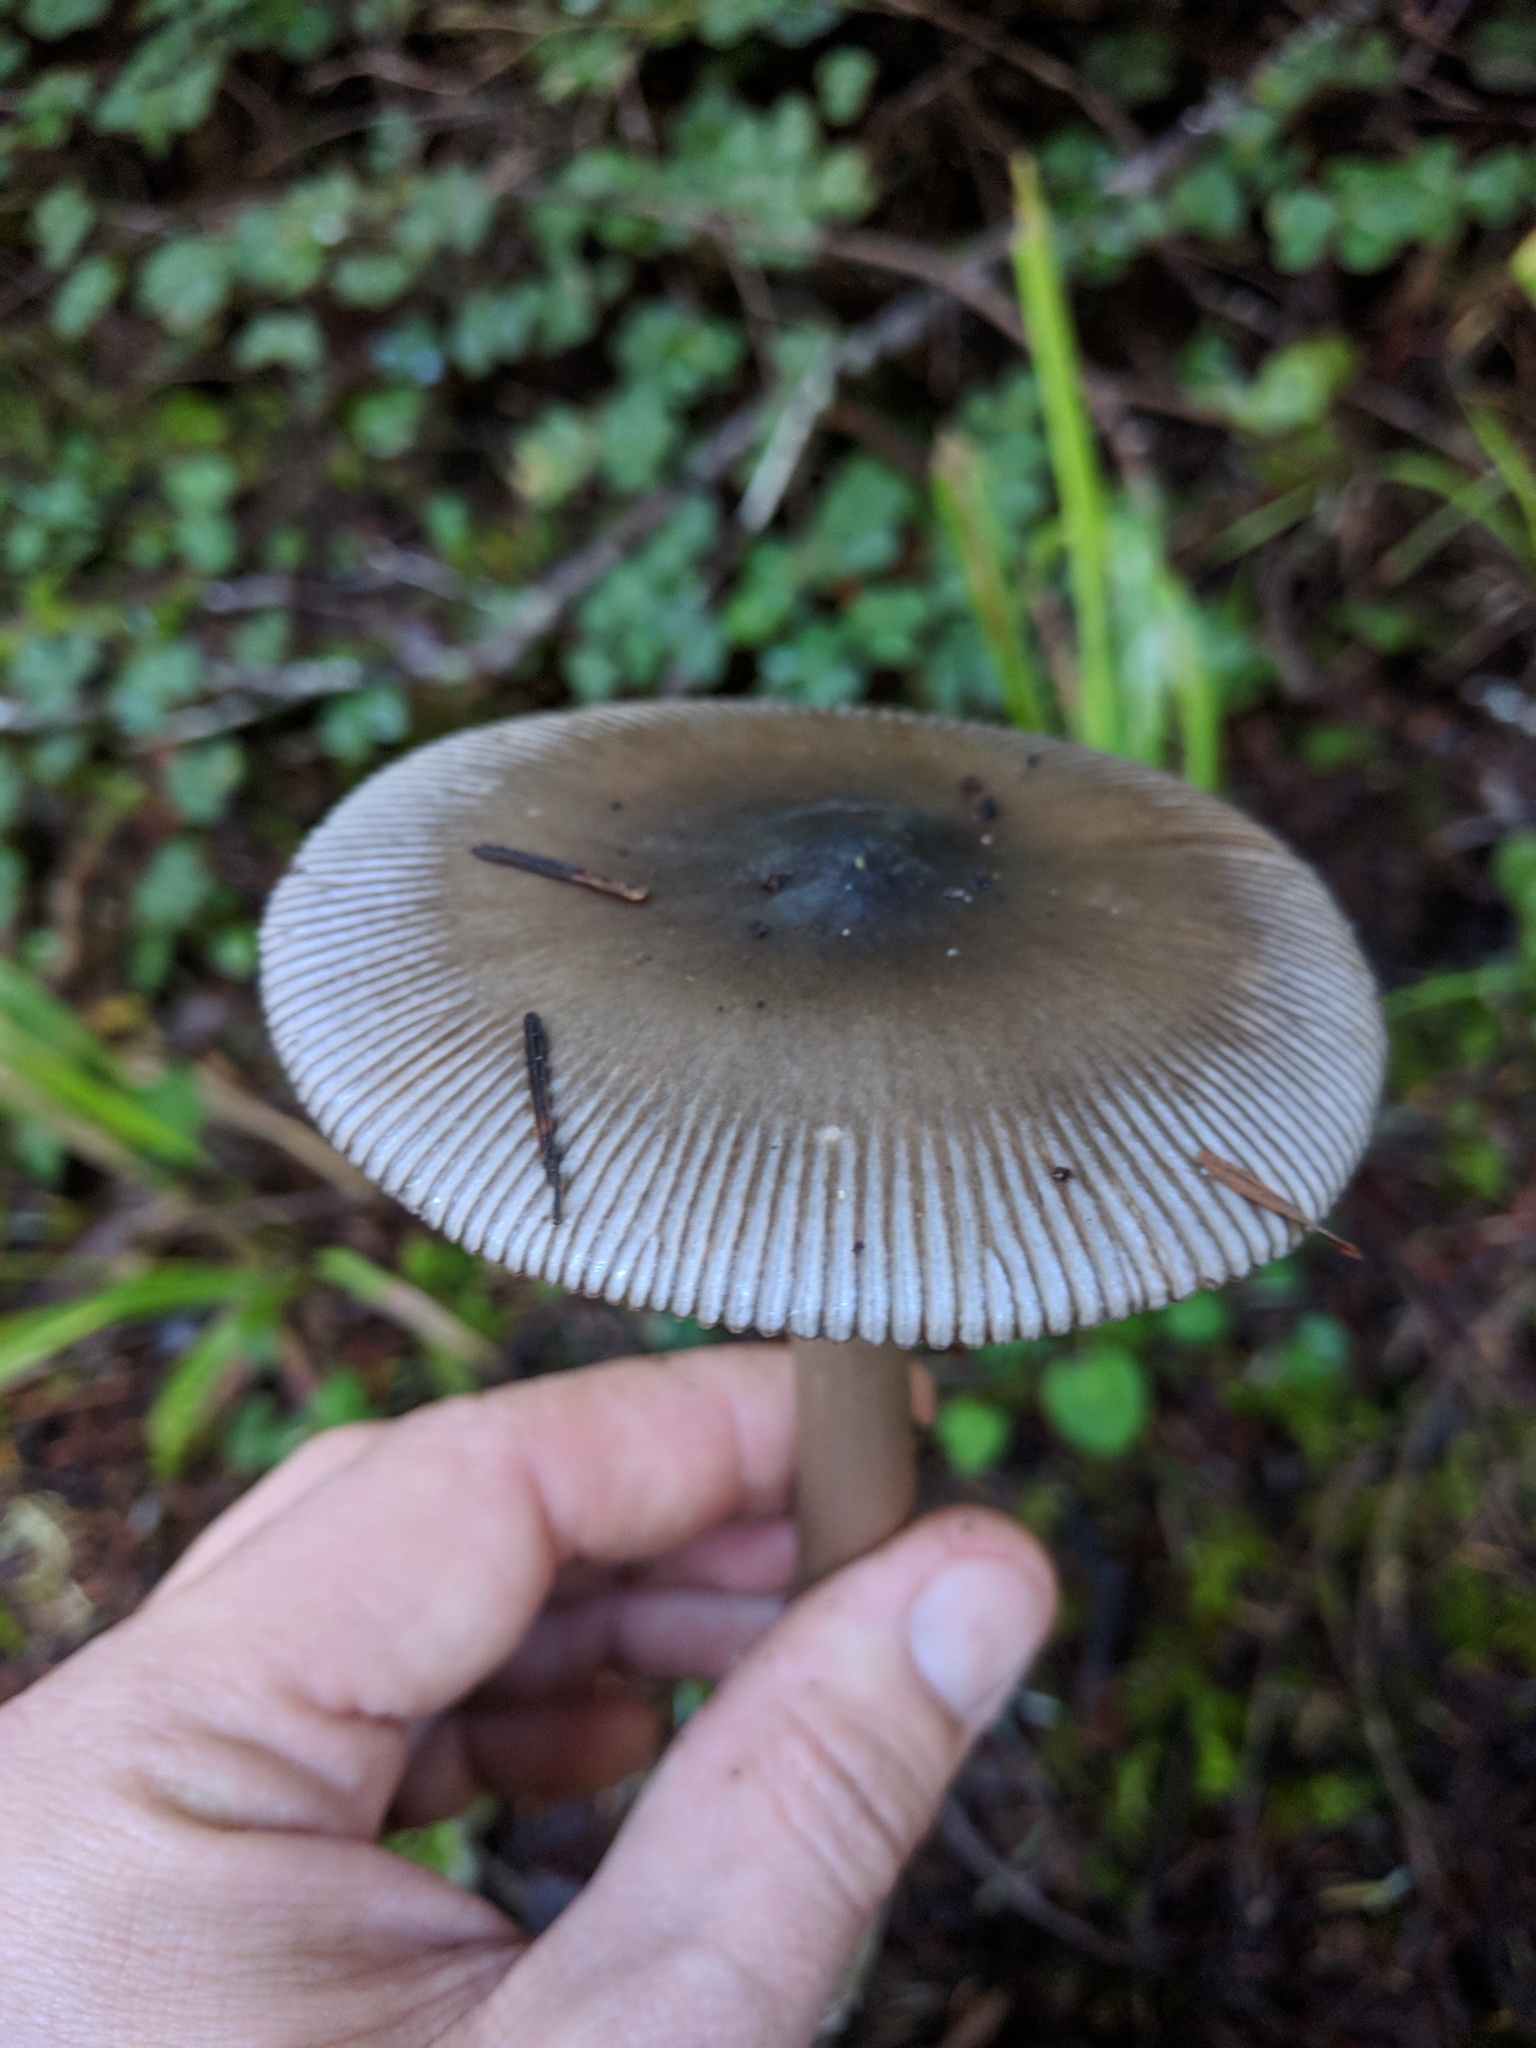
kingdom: Fungi
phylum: Basidiomycota
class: Agaricomycetes
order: Agaricales
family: Amanitaceae
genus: Amanita
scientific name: Amanita pachycolea
